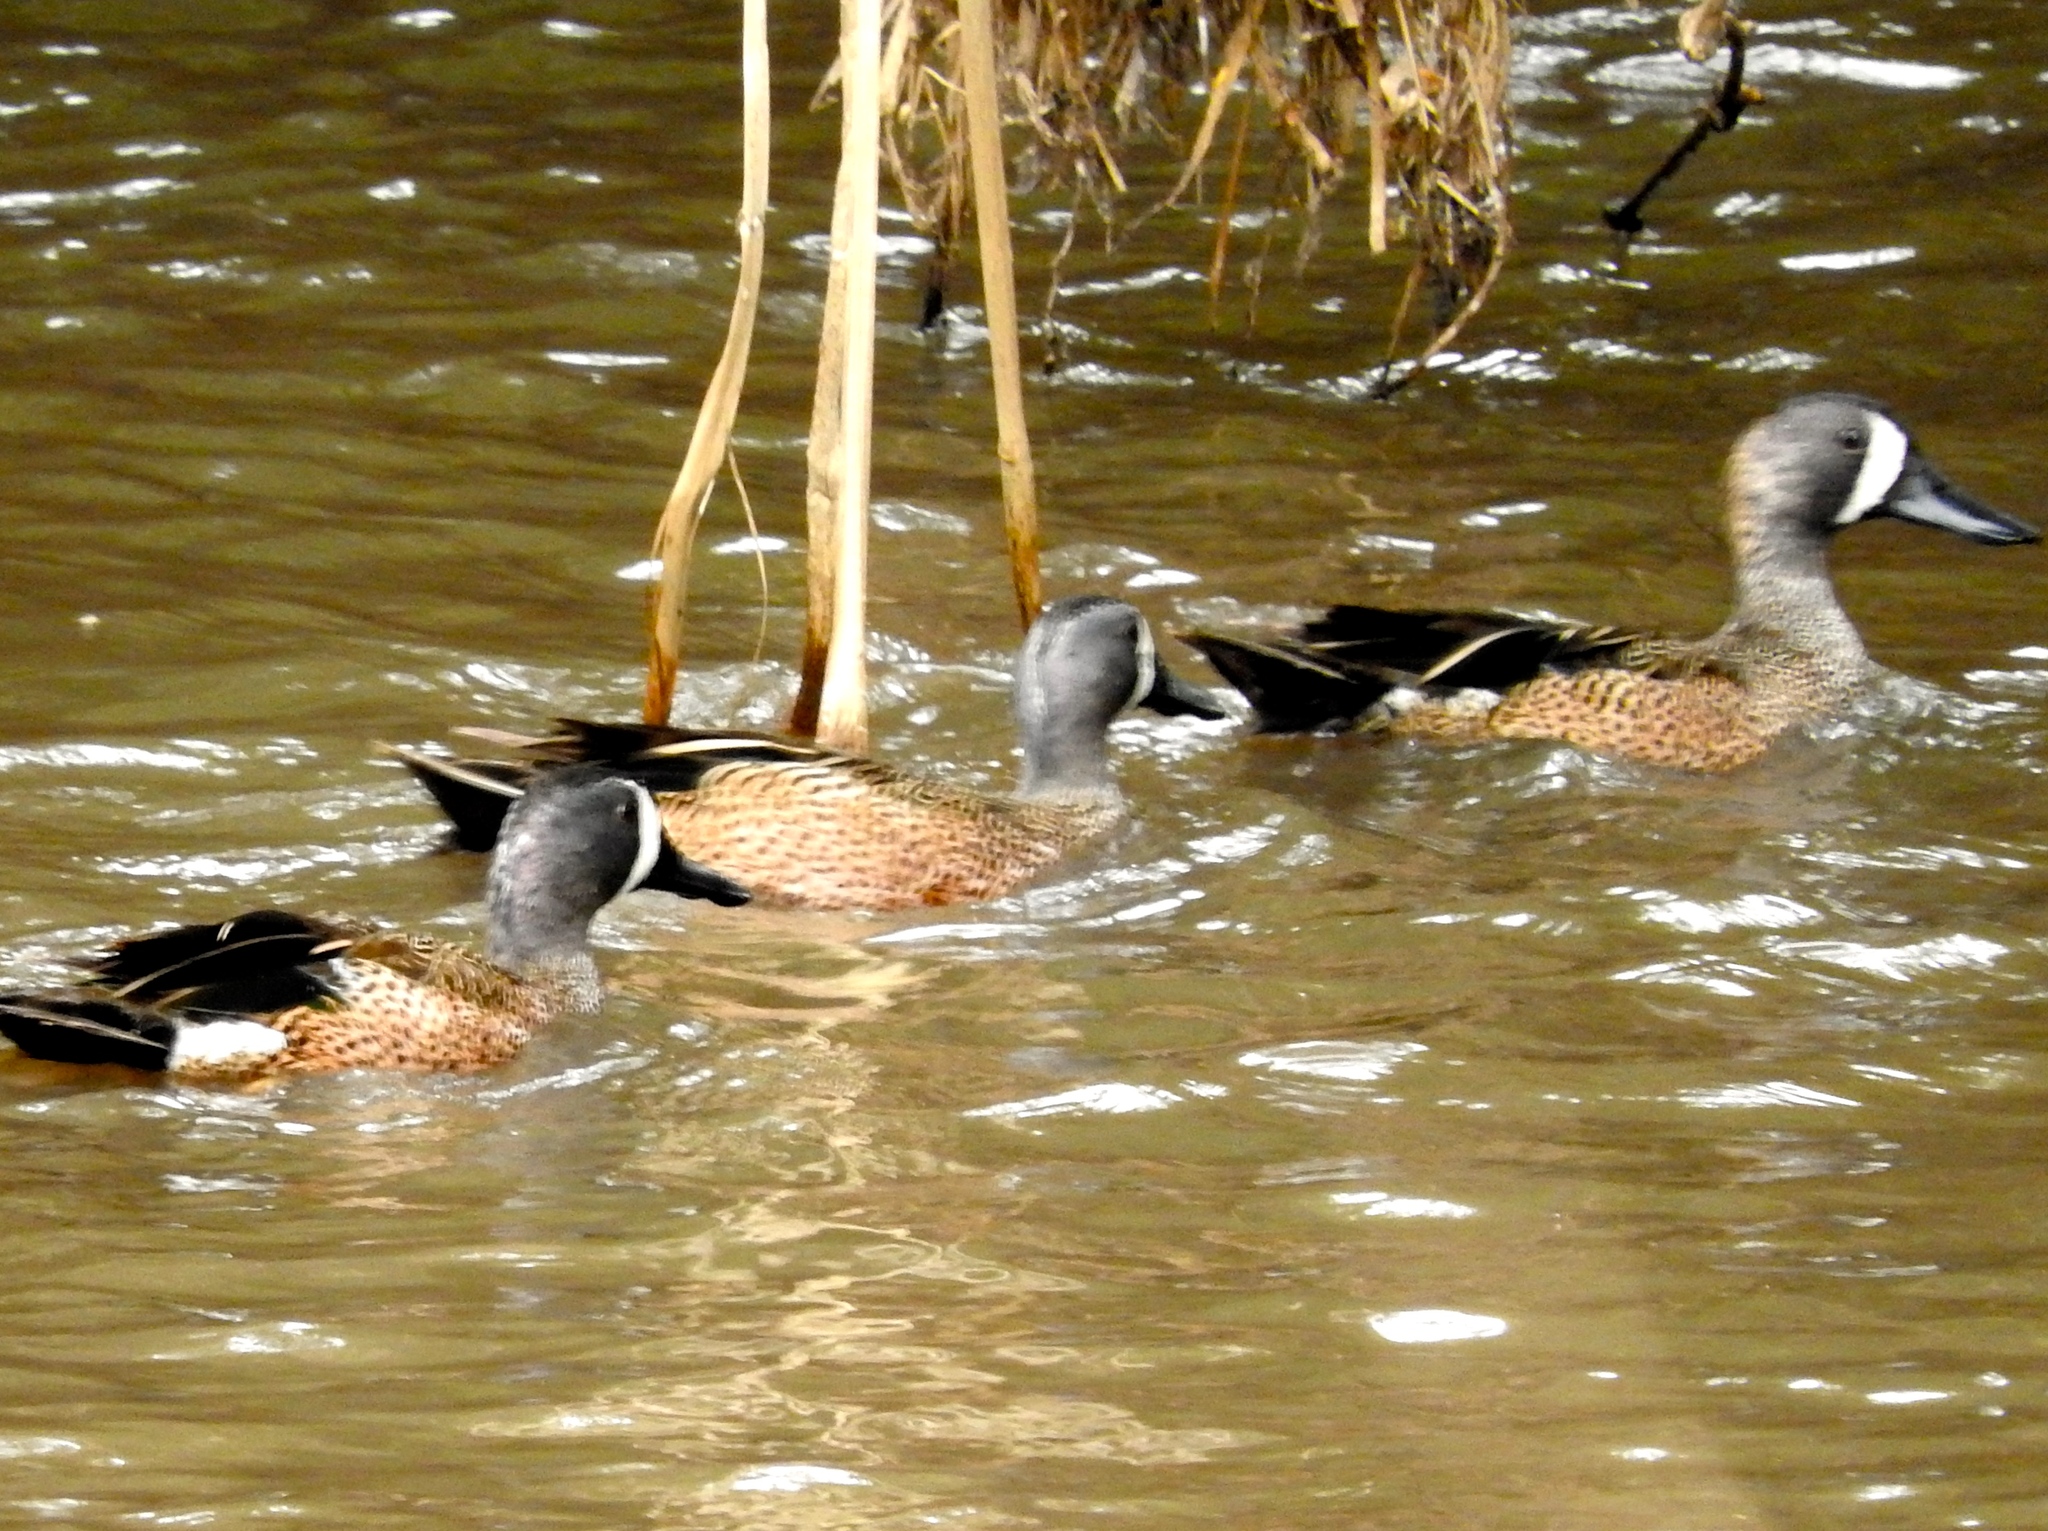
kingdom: Animalia
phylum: Chordata
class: Aves
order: Anseriformes
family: Anatidae
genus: Spatula
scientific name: Spatula discors
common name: Blue-winged teal
